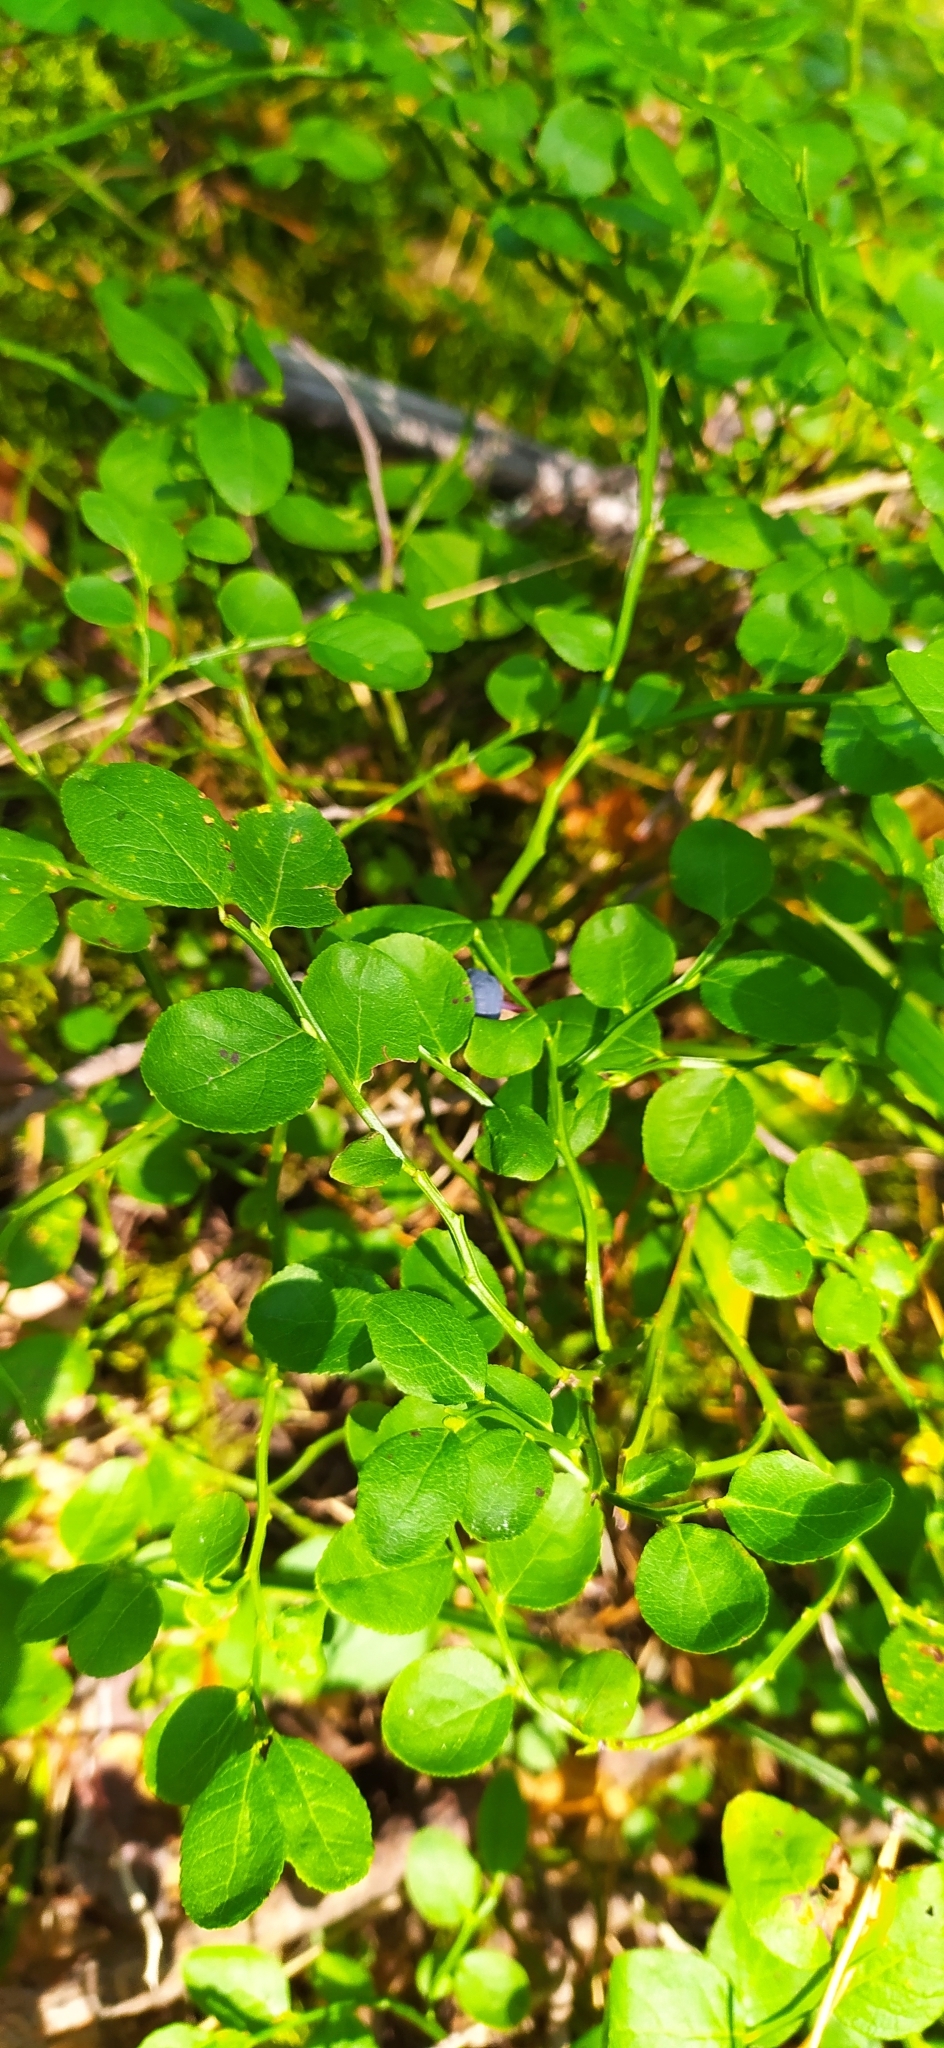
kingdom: Plantae
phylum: Tracheophyta
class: Magnoliopsida
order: Ericales
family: Ericaceae
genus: Vaccinium
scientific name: Vaccinium myrtillus
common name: Bilberry
